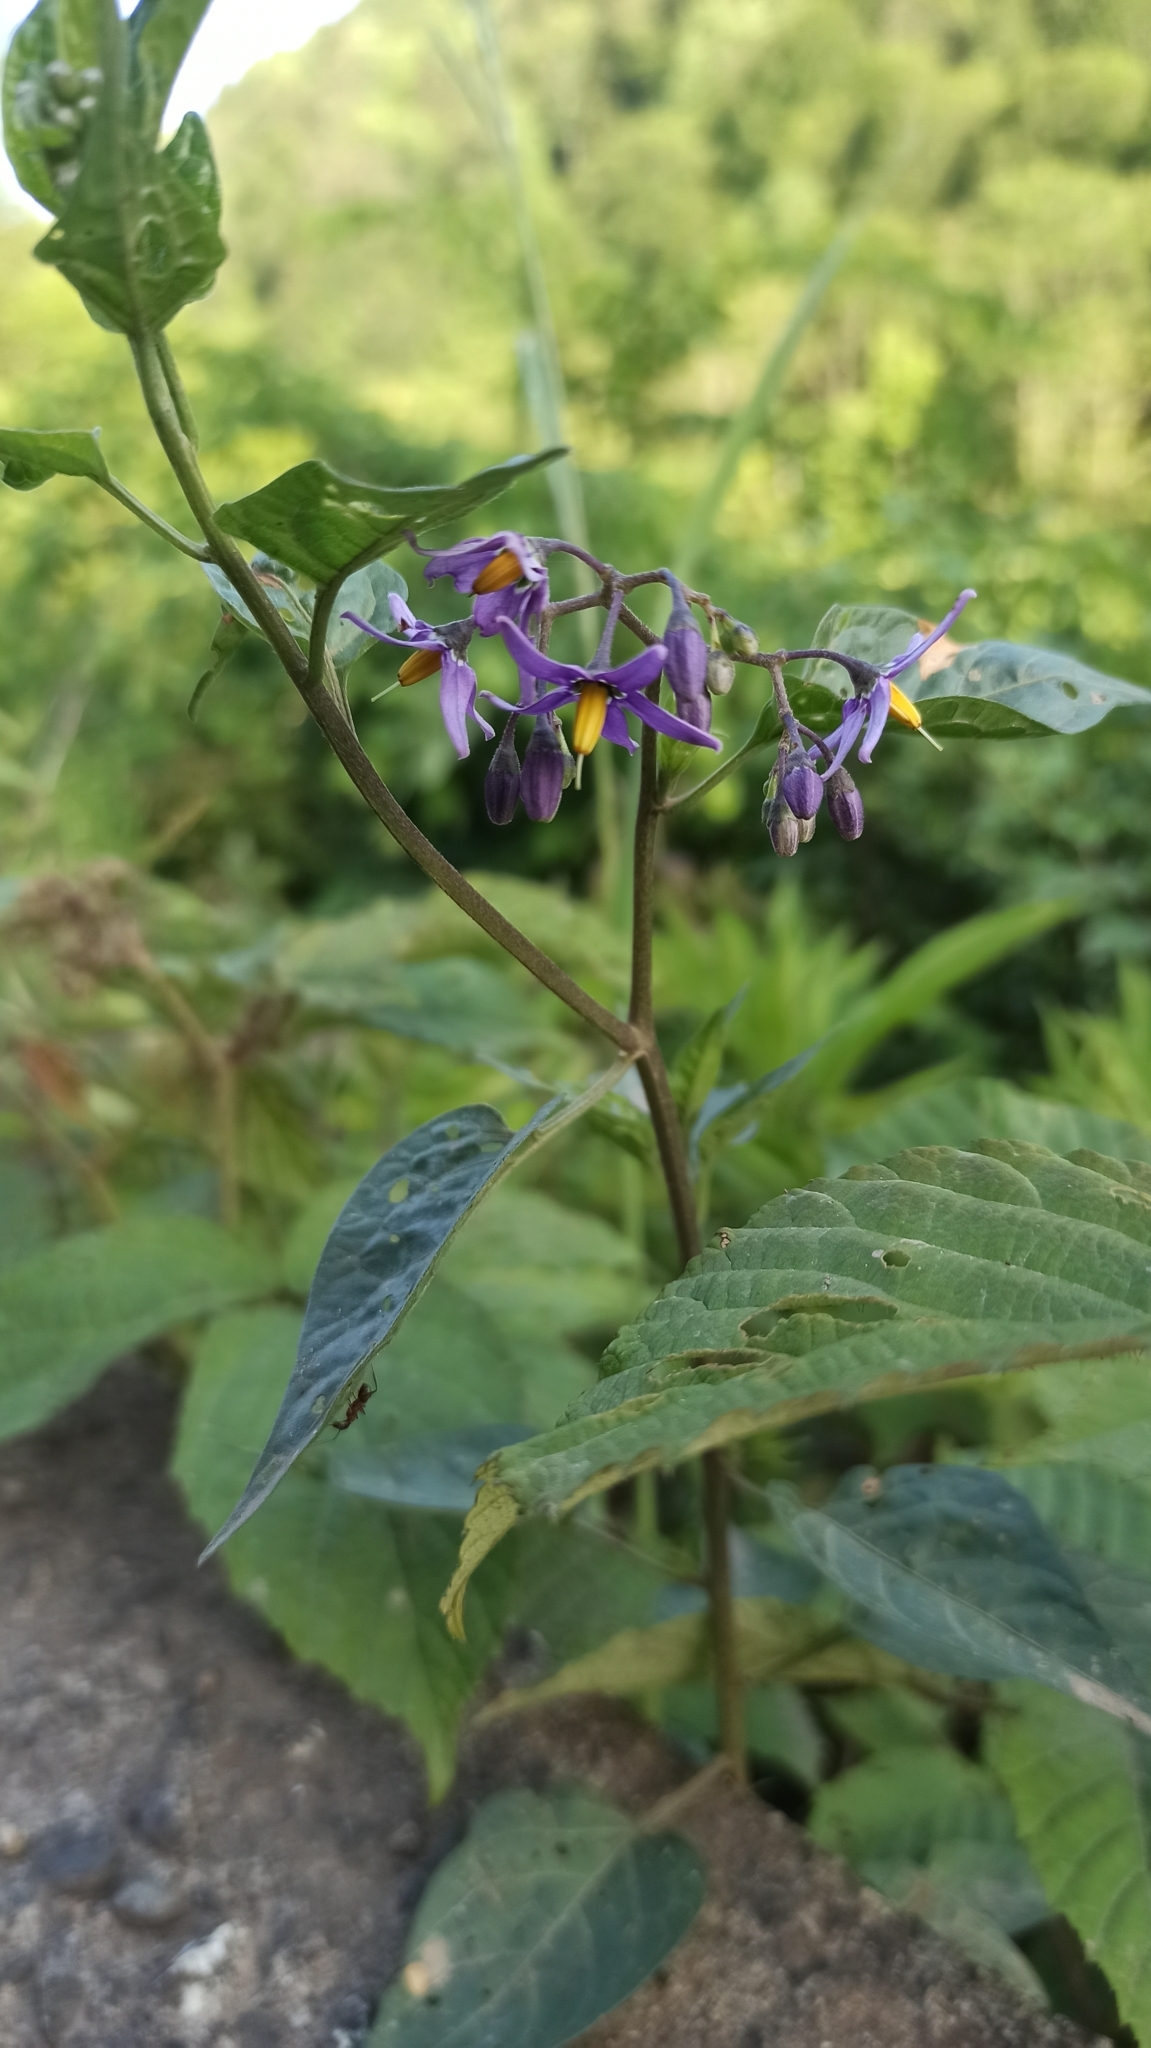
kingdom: Plantae
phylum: Tracheophyta
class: Magnoliopsida
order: Solanales
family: Solanaceae
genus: Solanum
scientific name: Solanum dulcamara
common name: Climbing nightshade
